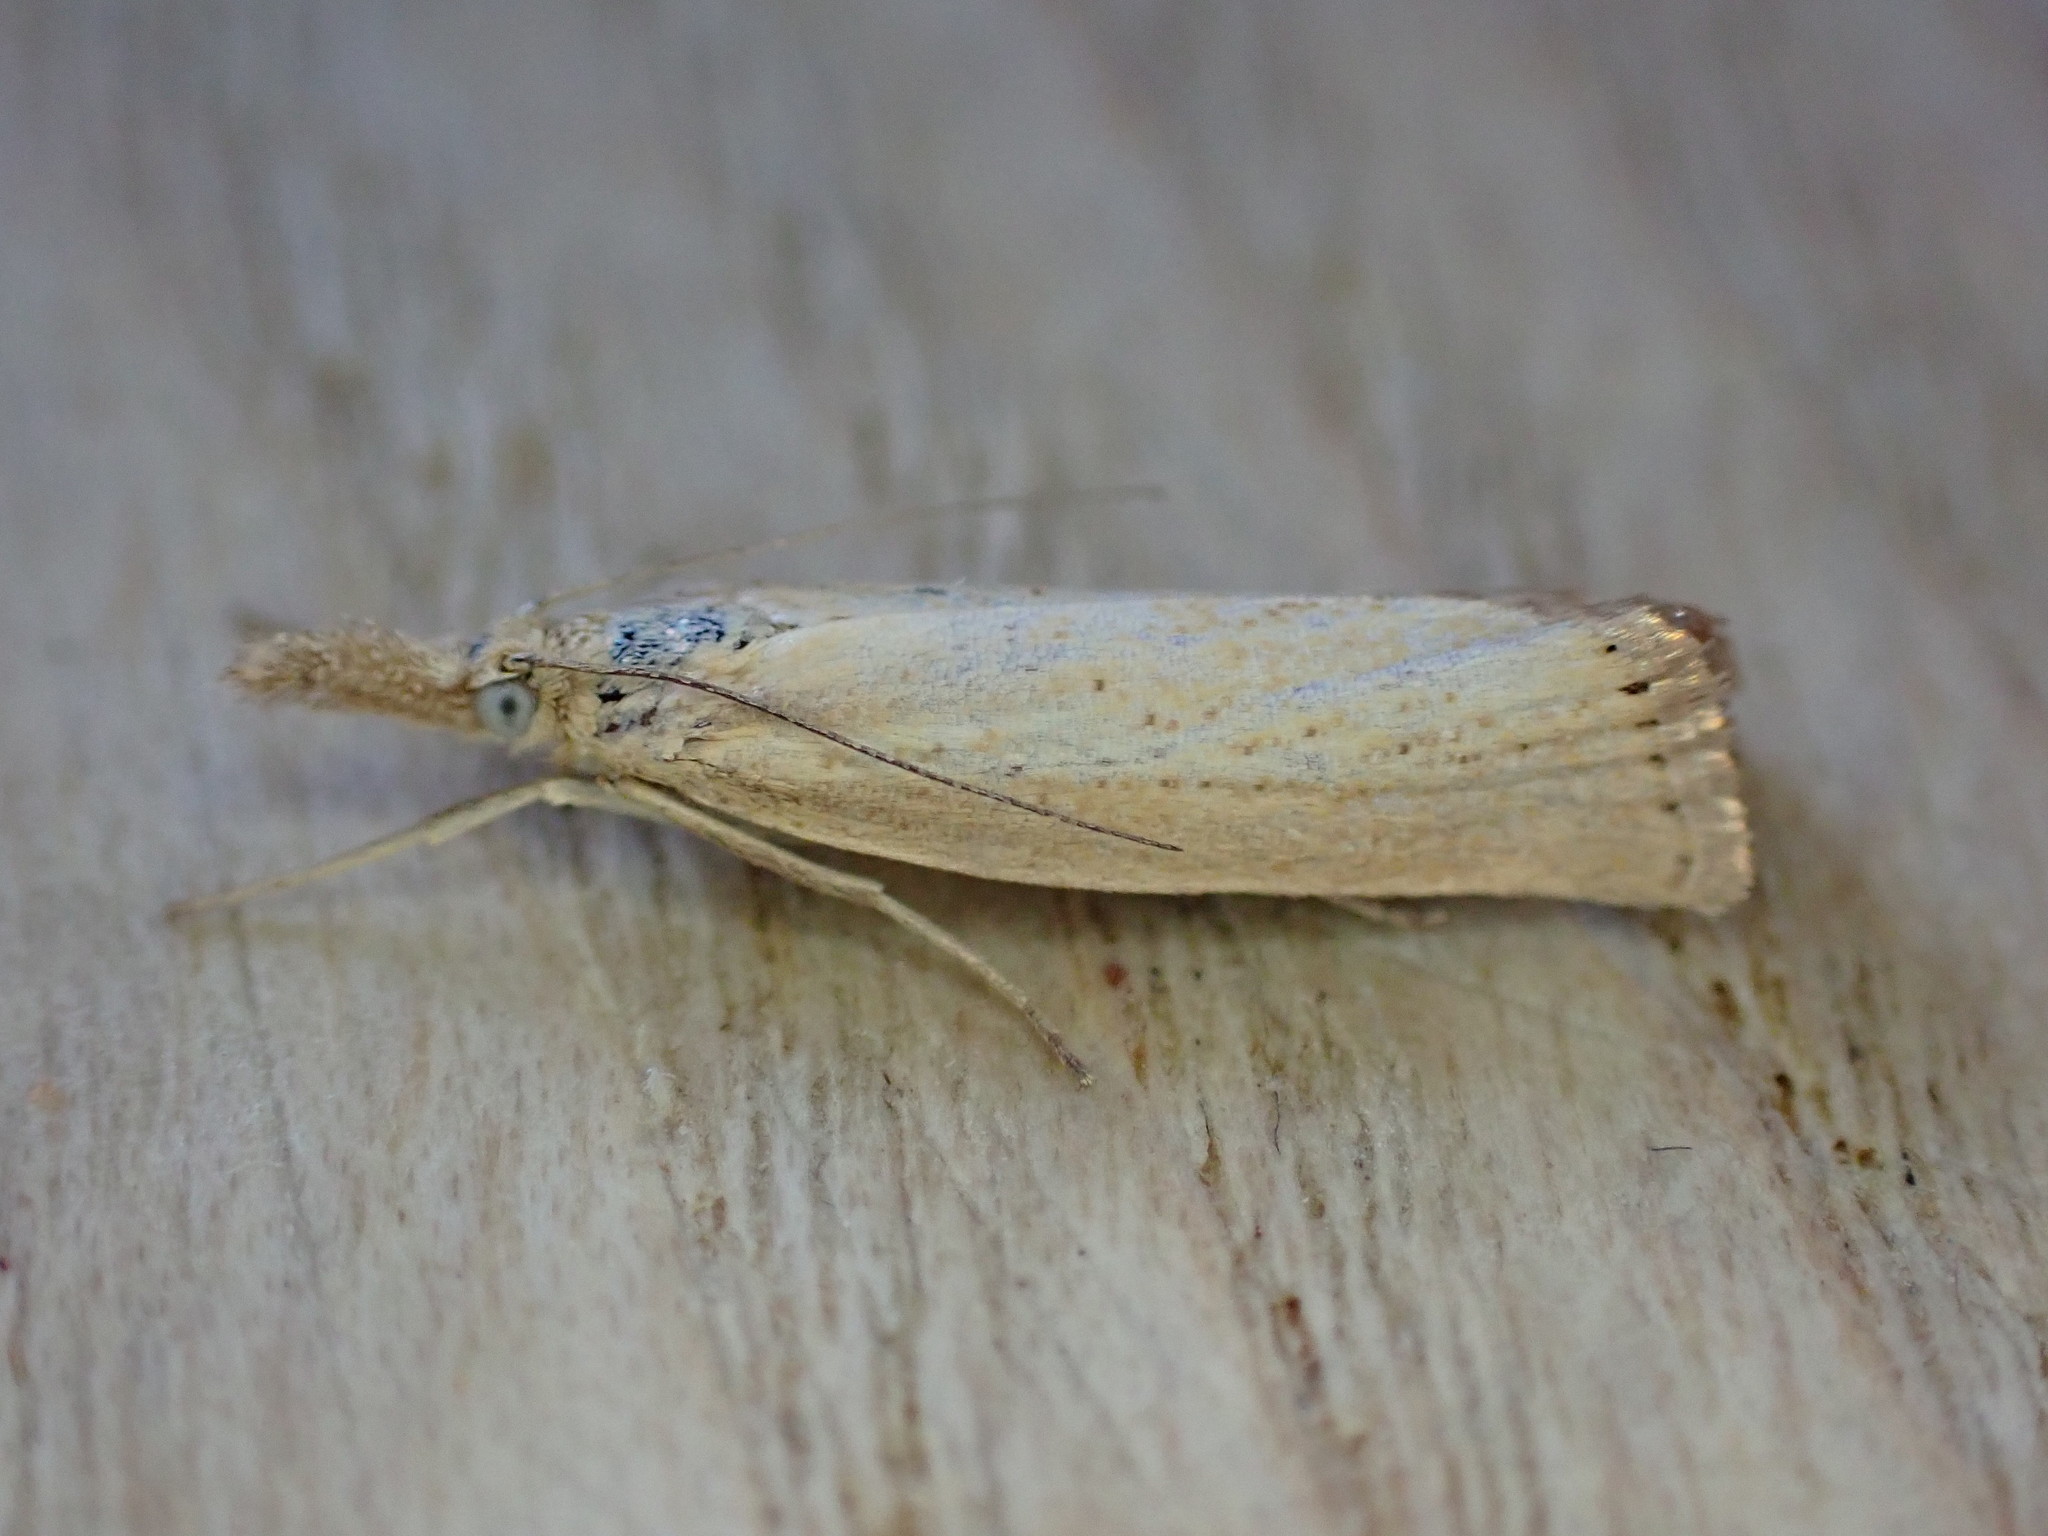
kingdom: Animalia
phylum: Arthropoda
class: Insecta
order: Lepidoptera
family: Crambidae
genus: Agriphila
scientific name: Agriphila straminella
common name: Straw grass-veneer
